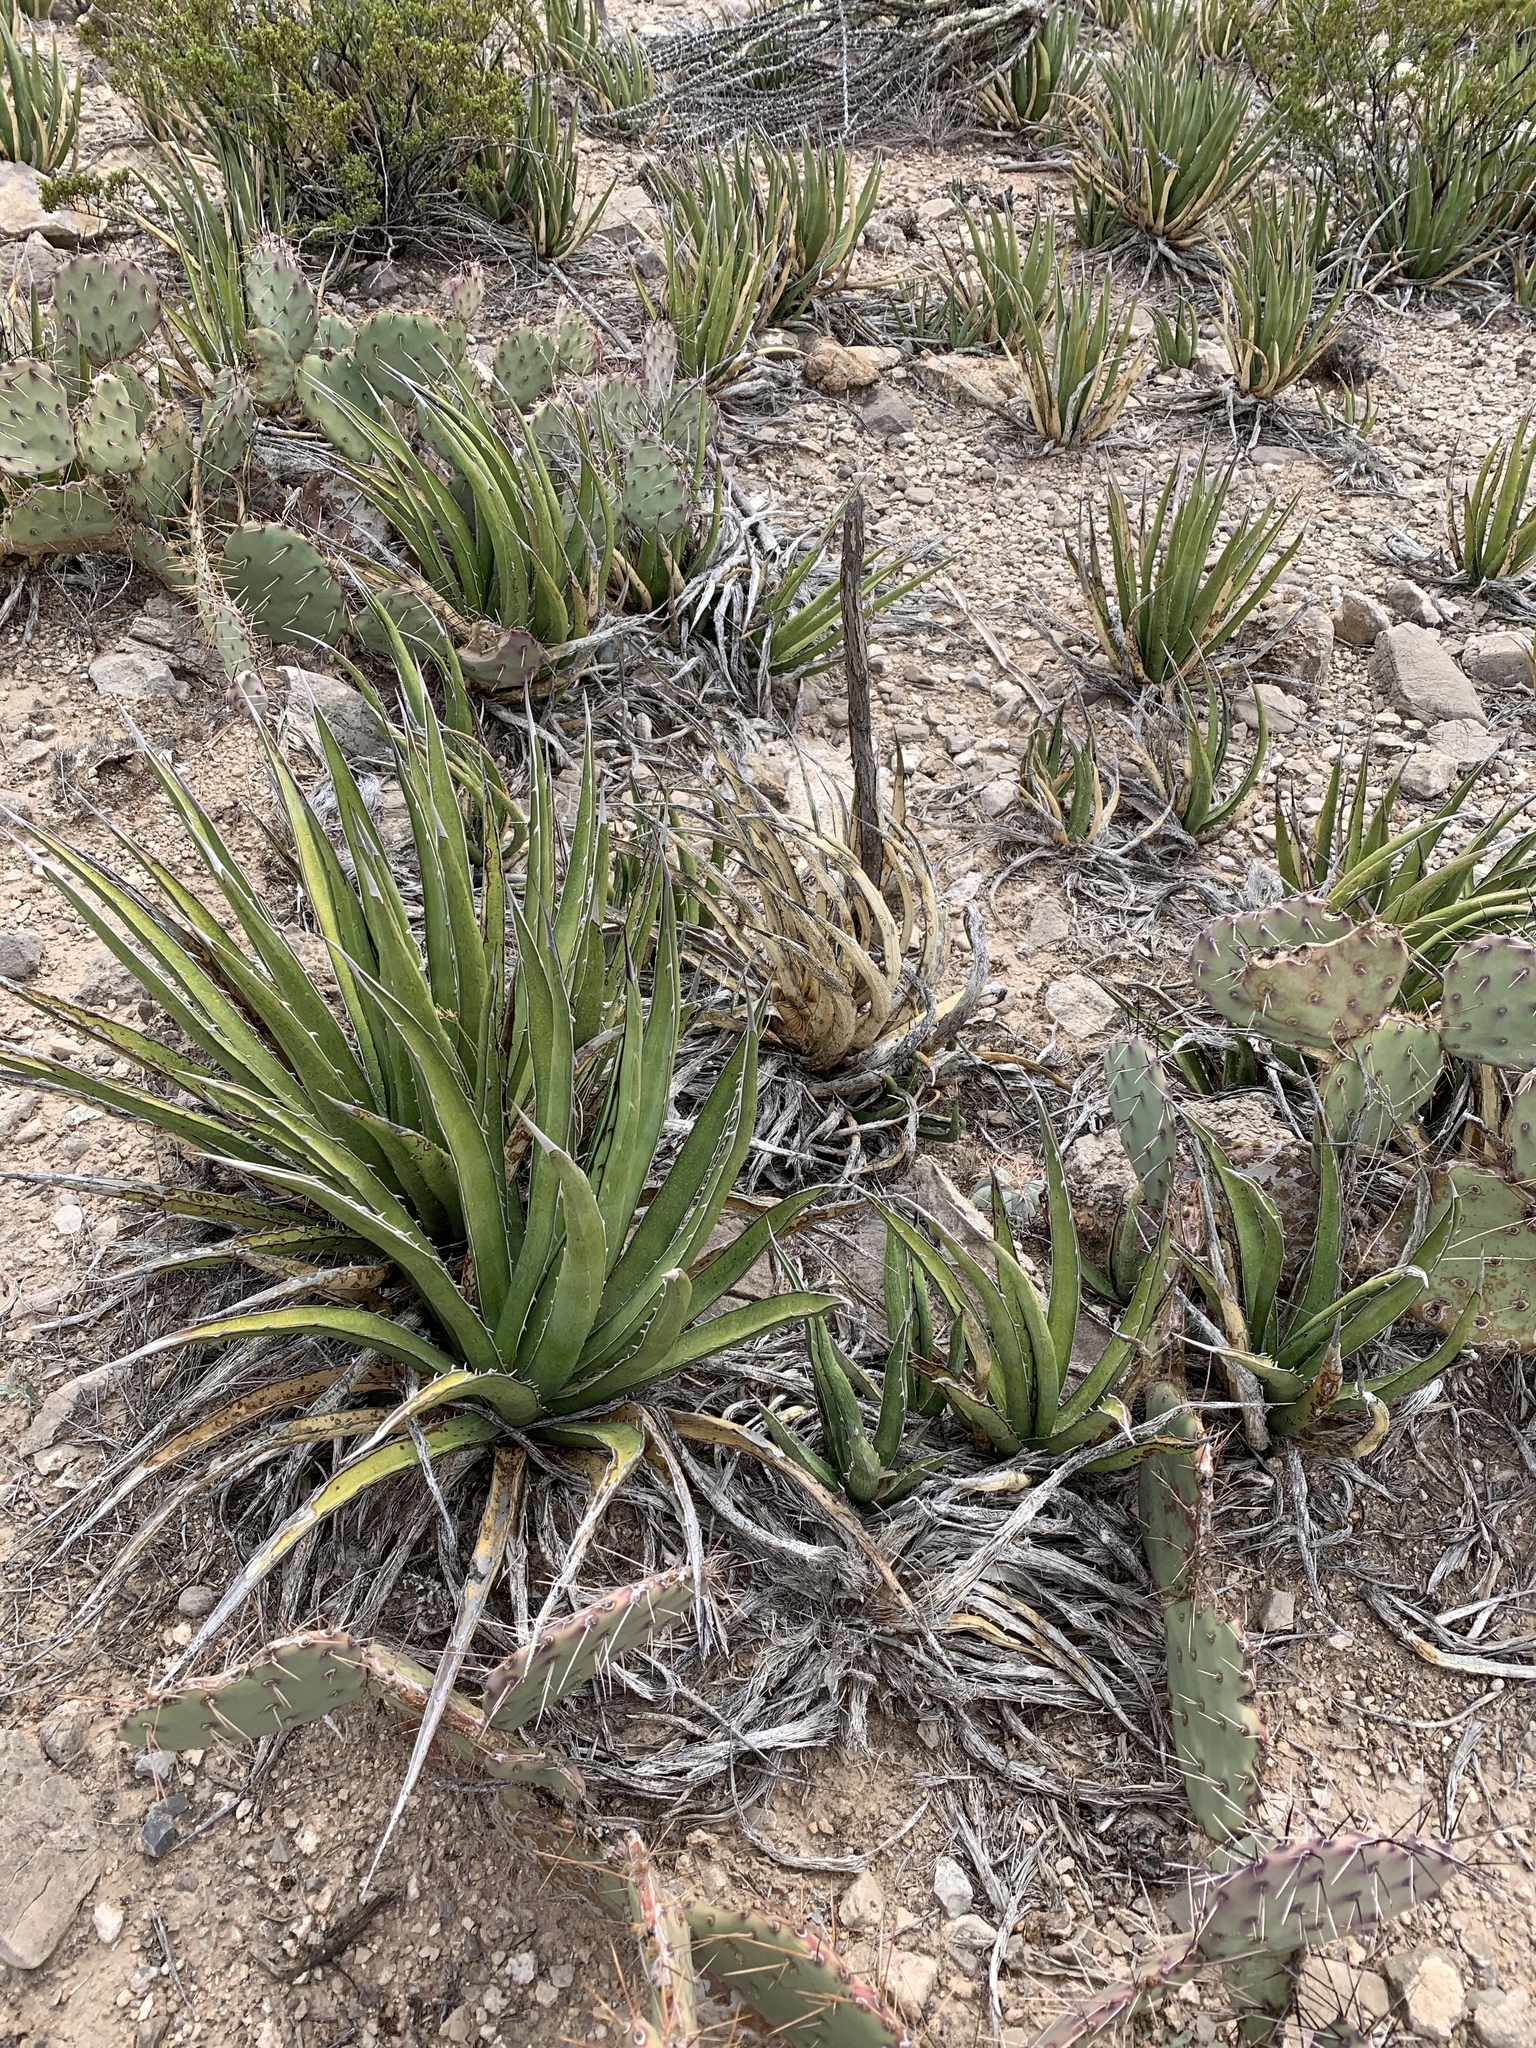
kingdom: Plantae
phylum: Tracheophyta
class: Liliopsida
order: Asparagales
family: Asparagaceae
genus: Agave
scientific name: Agave lechuguilla
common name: Lecheguilla agave
